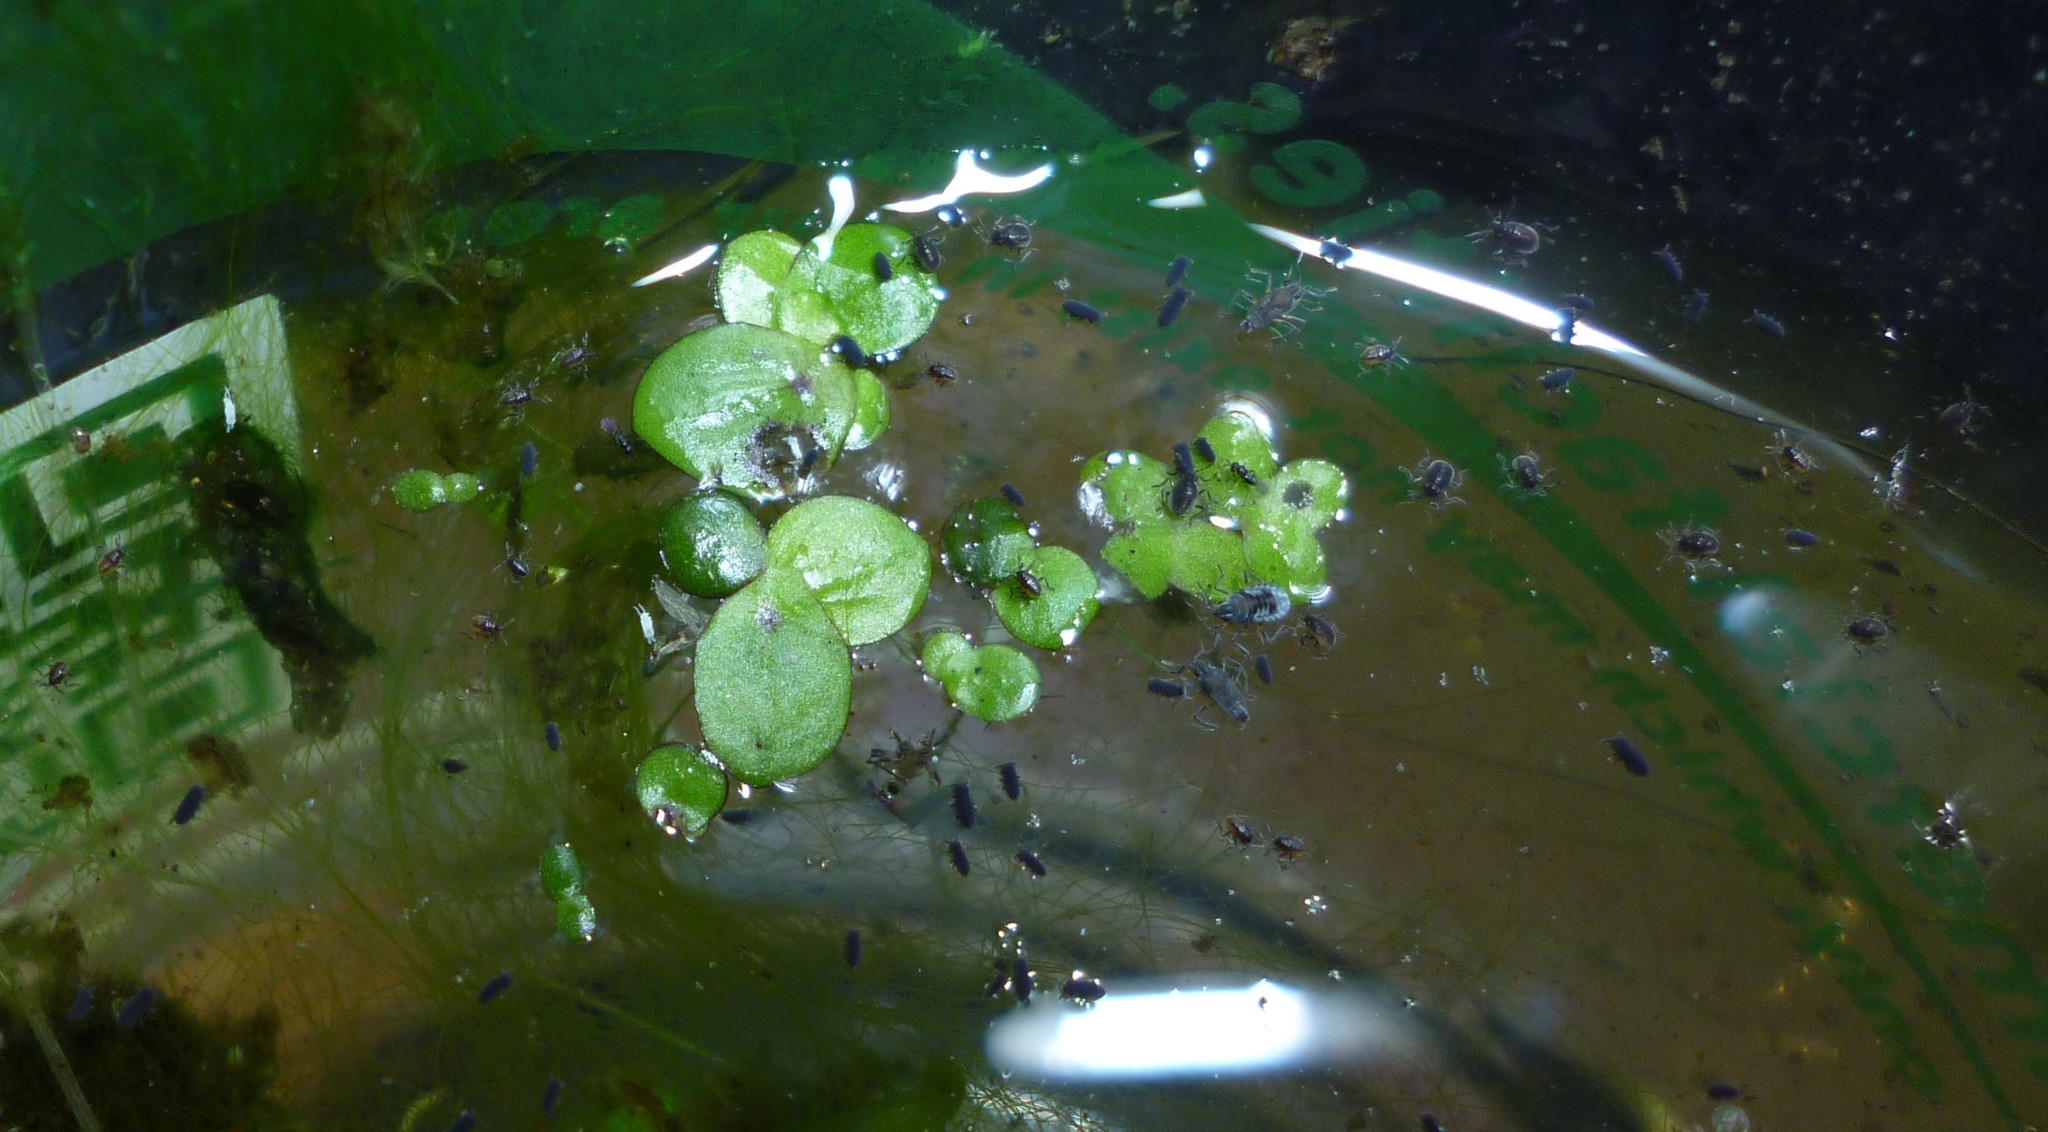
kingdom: Animalia
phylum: Arthropoda
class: Insecta
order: Hemiptera
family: Veliidae
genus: Microvelia
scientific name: Microvelia pulchella
